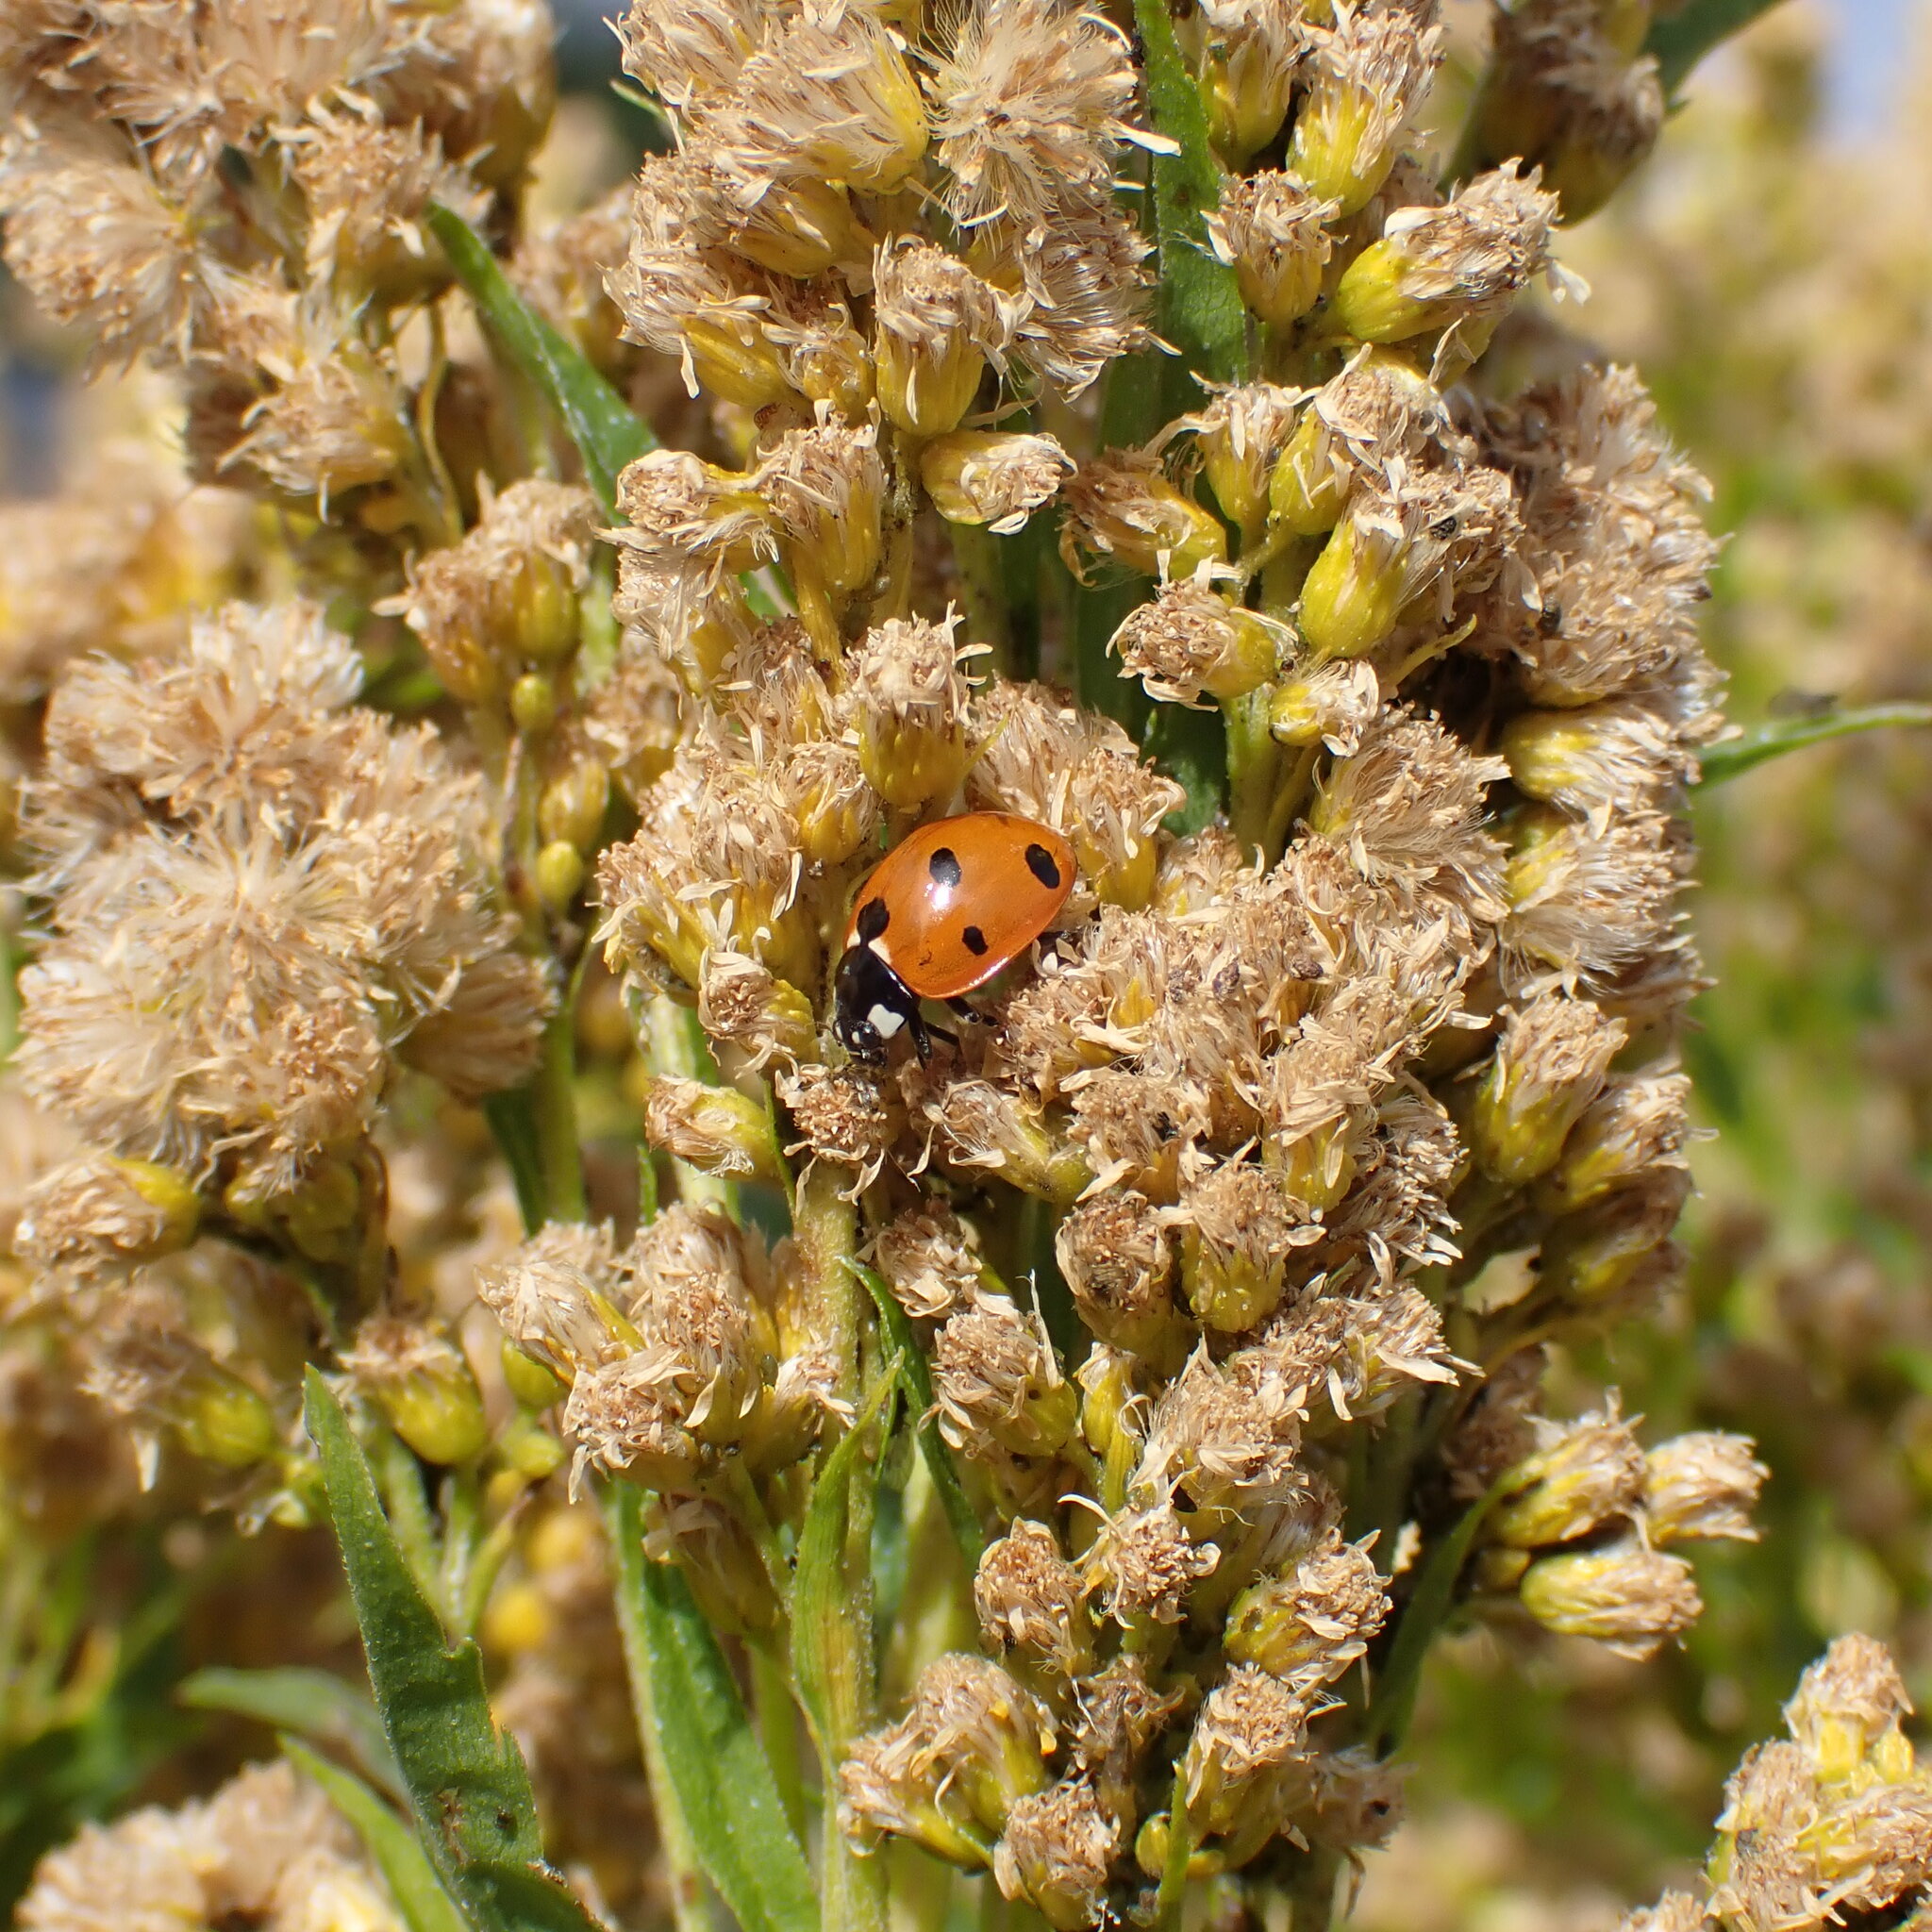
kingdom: Animalia
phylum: Arthropoda
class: Insecta
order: Coleoptera
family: Coccinellidae
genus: Coccinella
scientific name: Coccinella septempunctata
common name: Sevenspotted lady beetle
